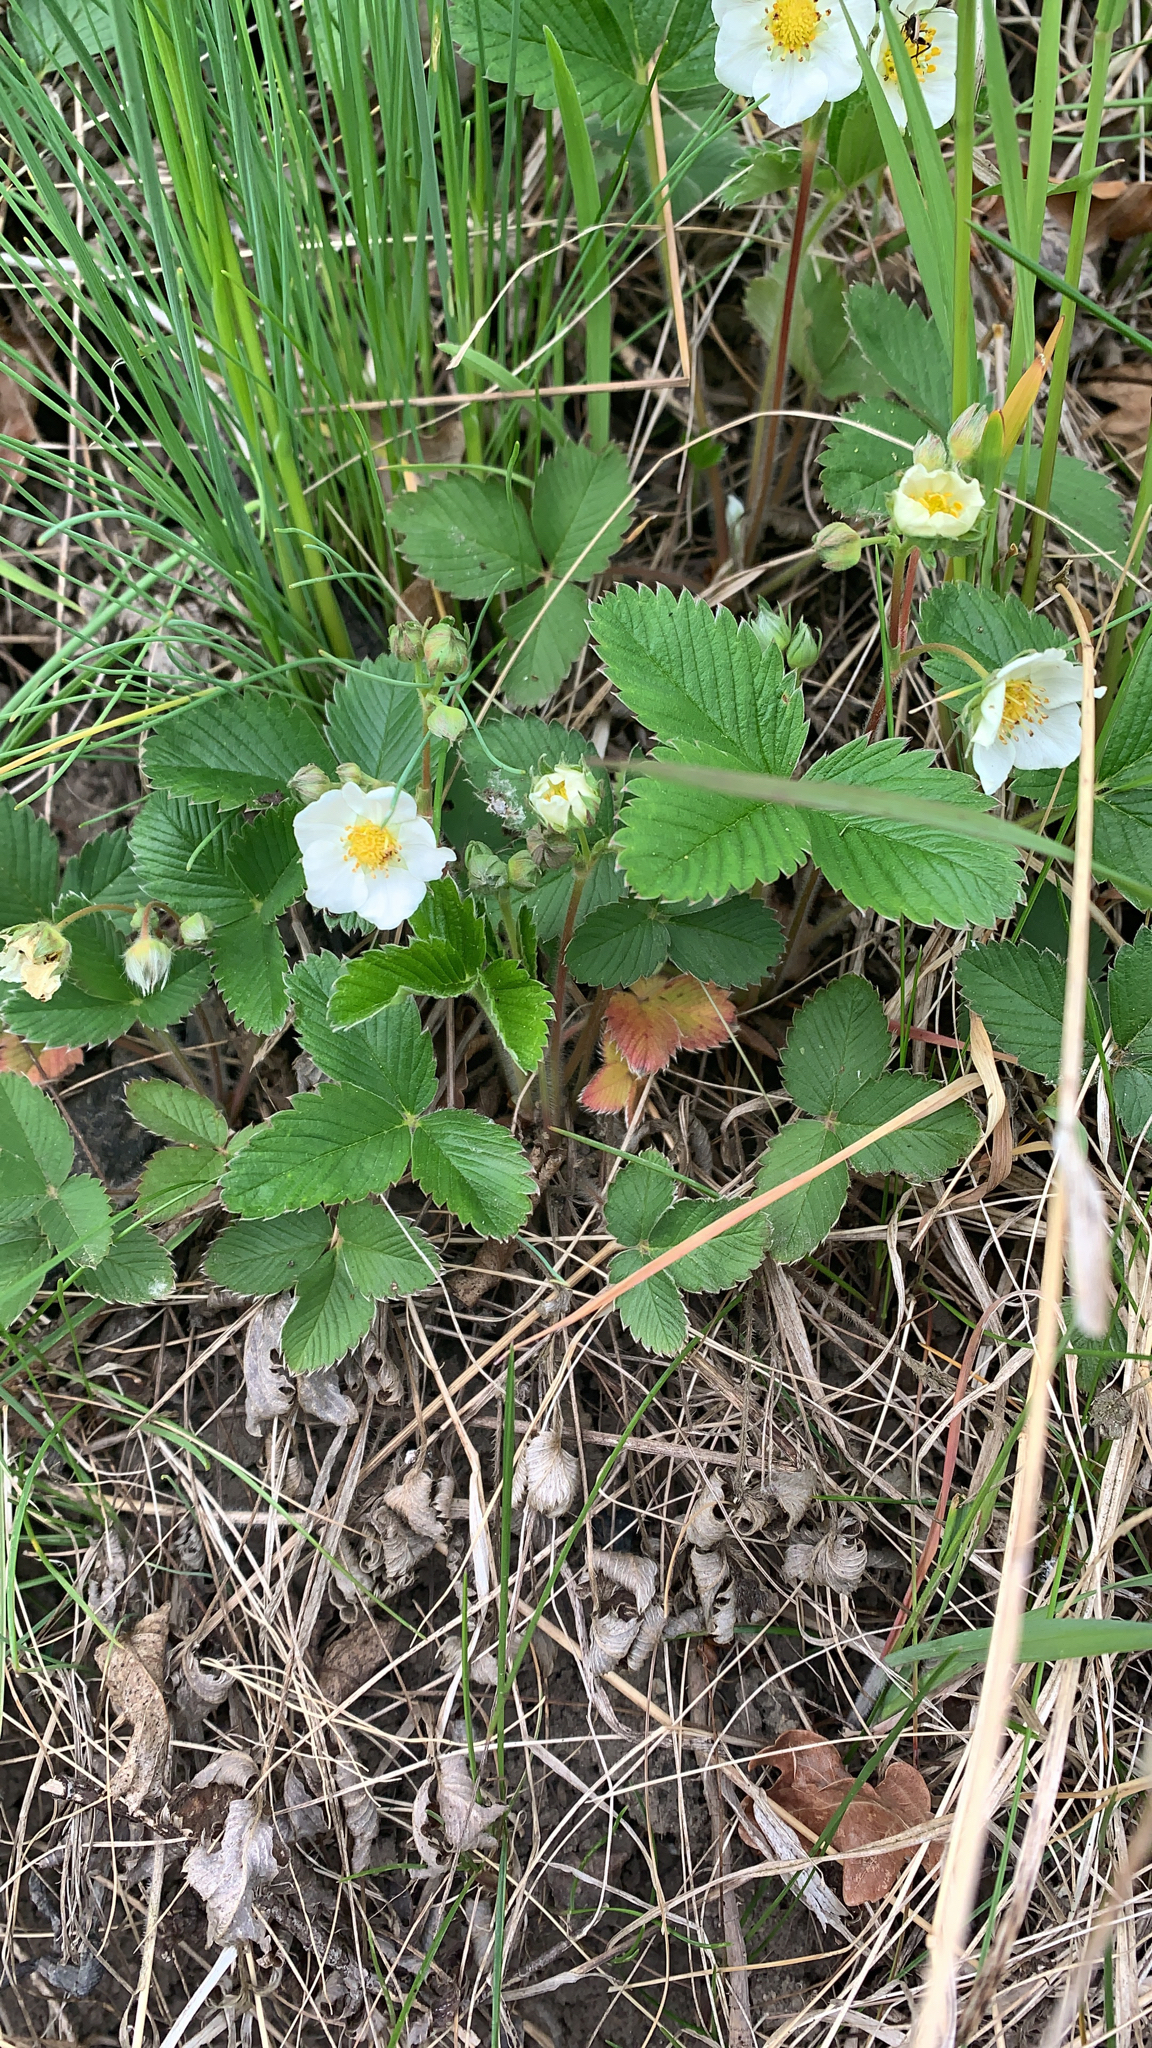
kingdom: Plantae
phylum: Tracheophyta
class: Magnoliopsida
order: Rosales
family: Rosaceae
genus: Fragaria
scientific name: Fragaria viridis
